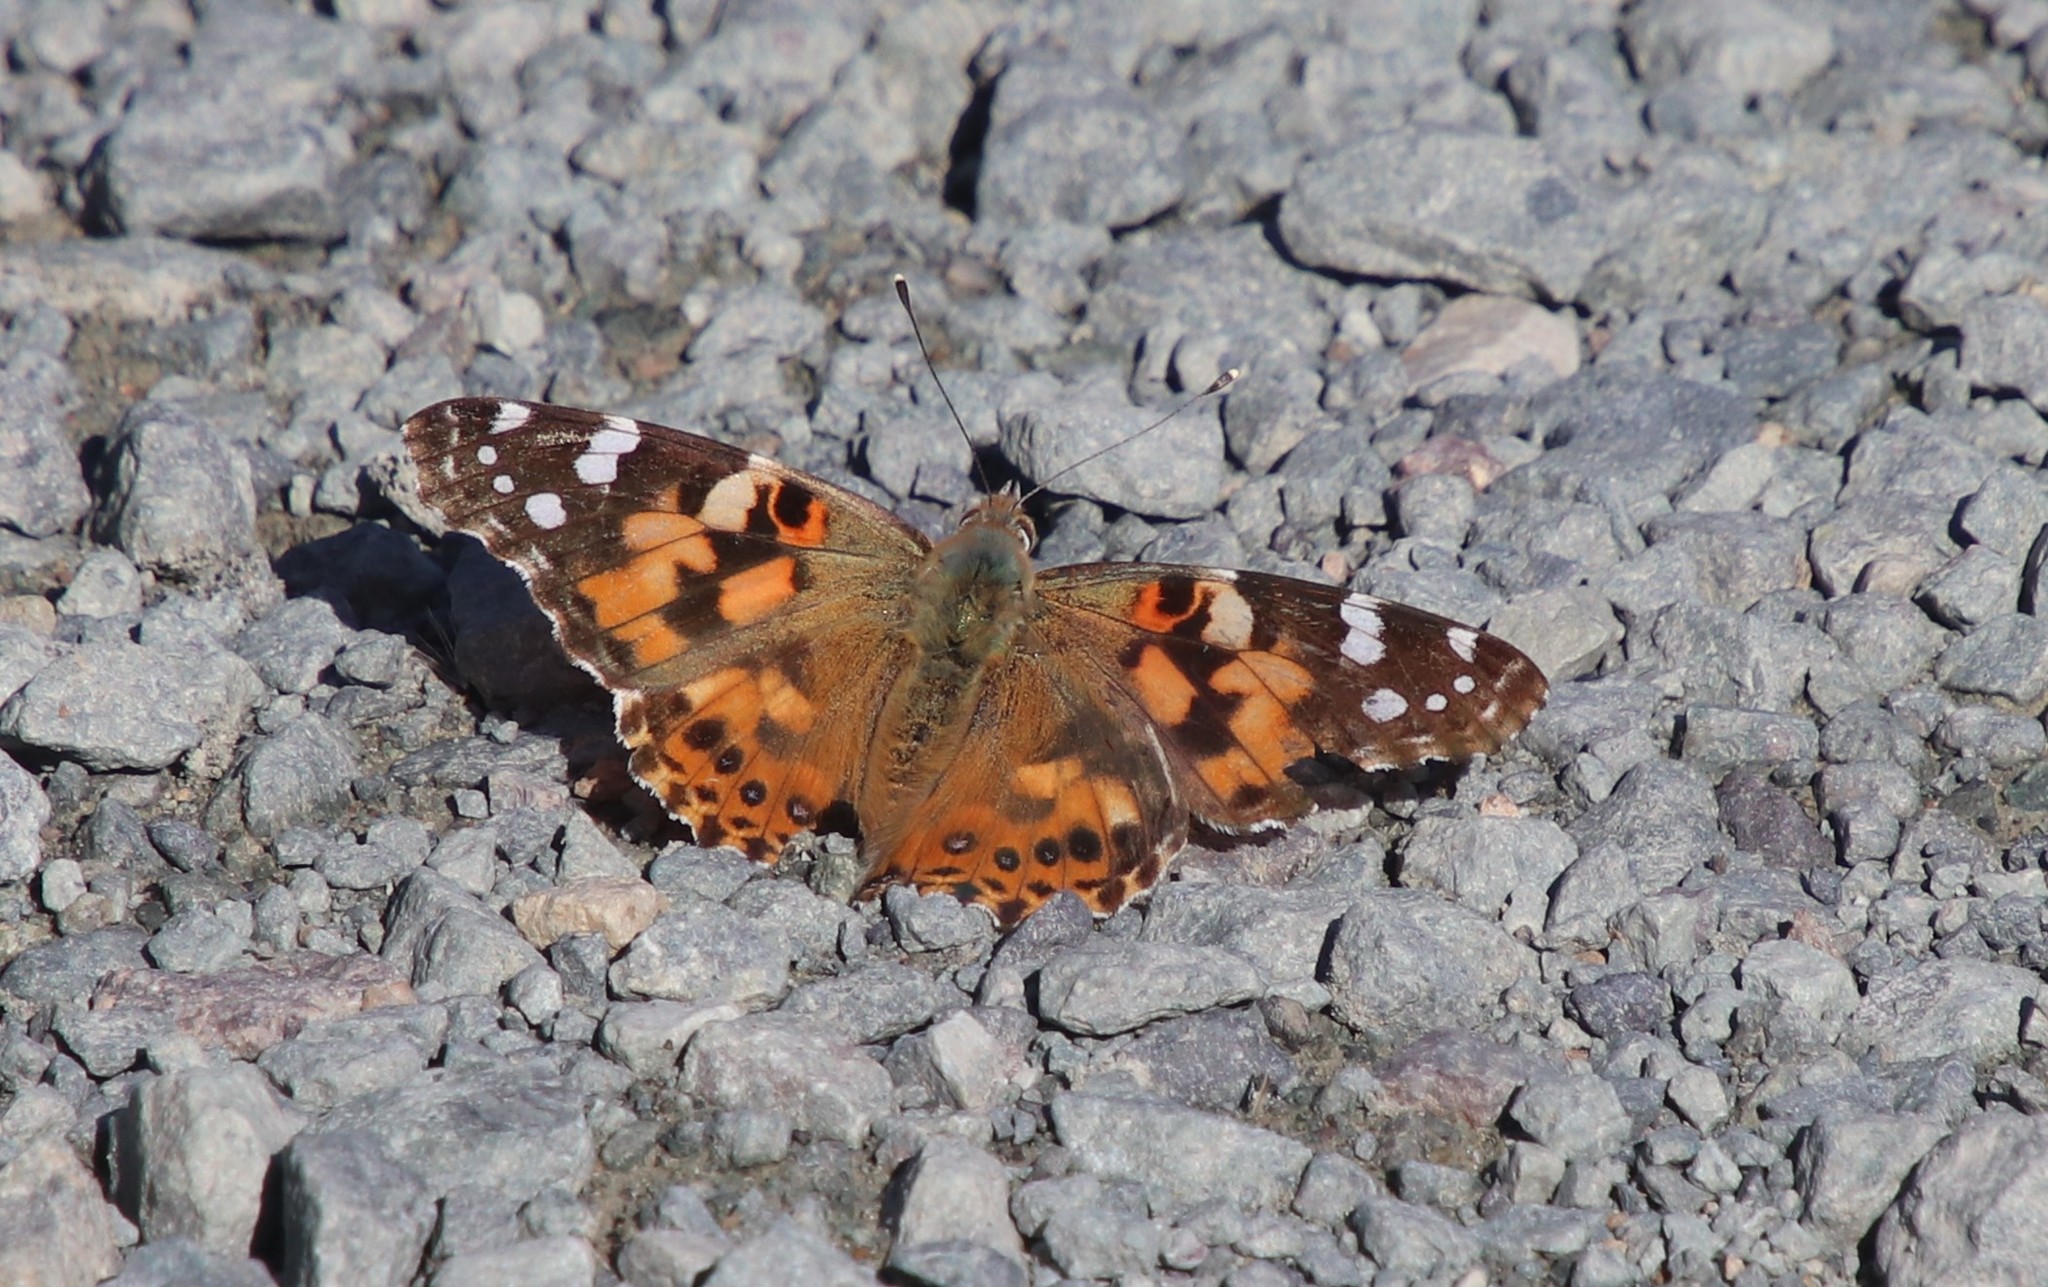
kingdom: Animalia
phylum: Arthropoda
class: Insecta
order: Lepidoptera
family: Nymphalidae
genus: Vanessa
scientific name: Vanessa cardui
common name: Painted lady
